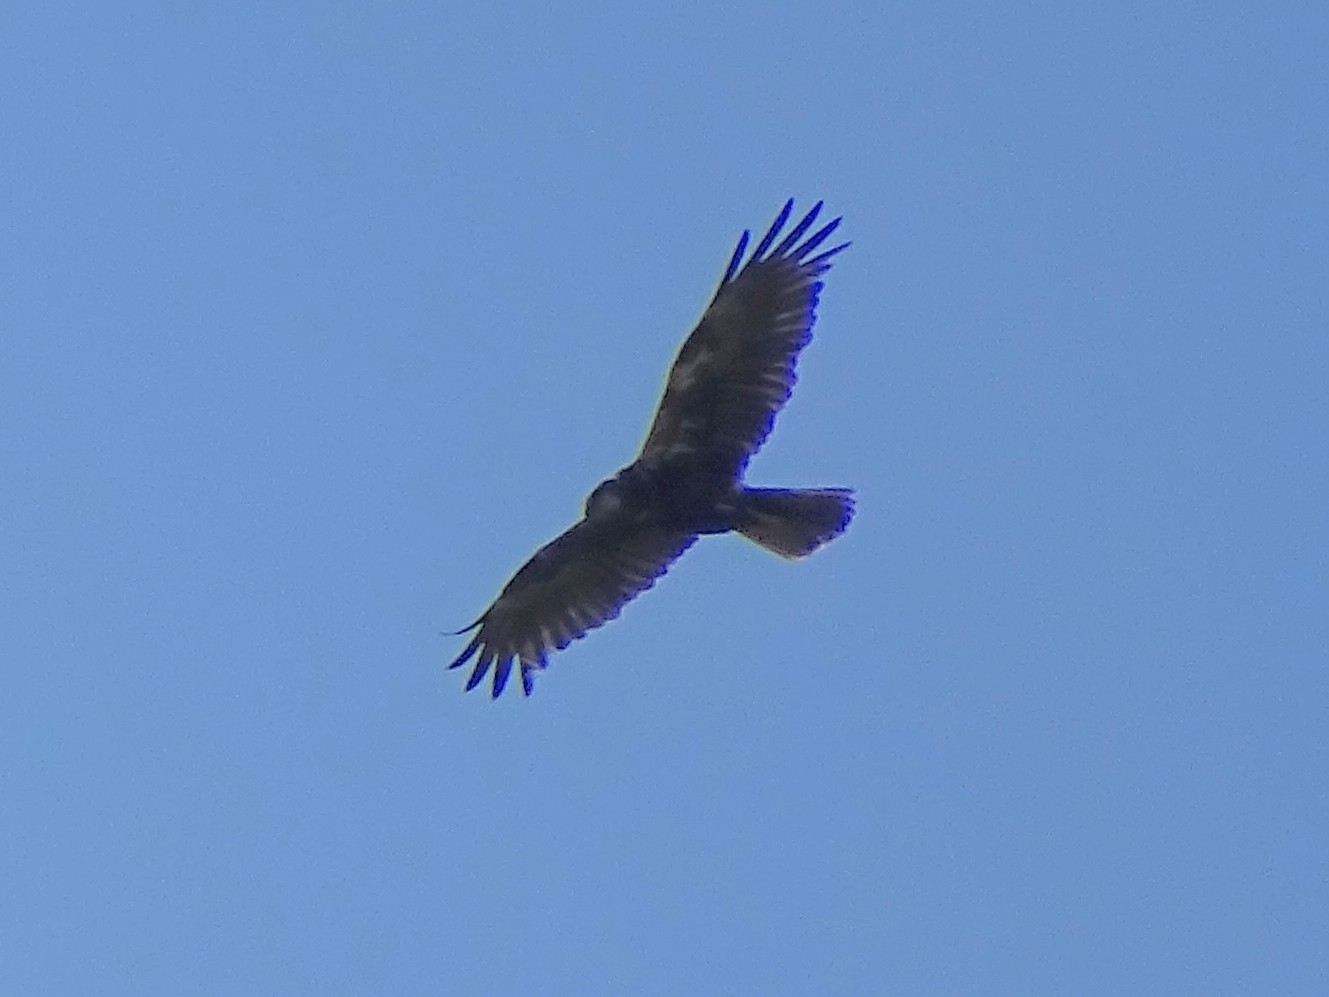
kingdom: Animalia
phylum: Chordata
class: Aves
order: Accipitriformes
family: Accipitridae
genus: Circus
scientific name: Circus aeruginosus
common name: Western marsh harrier
